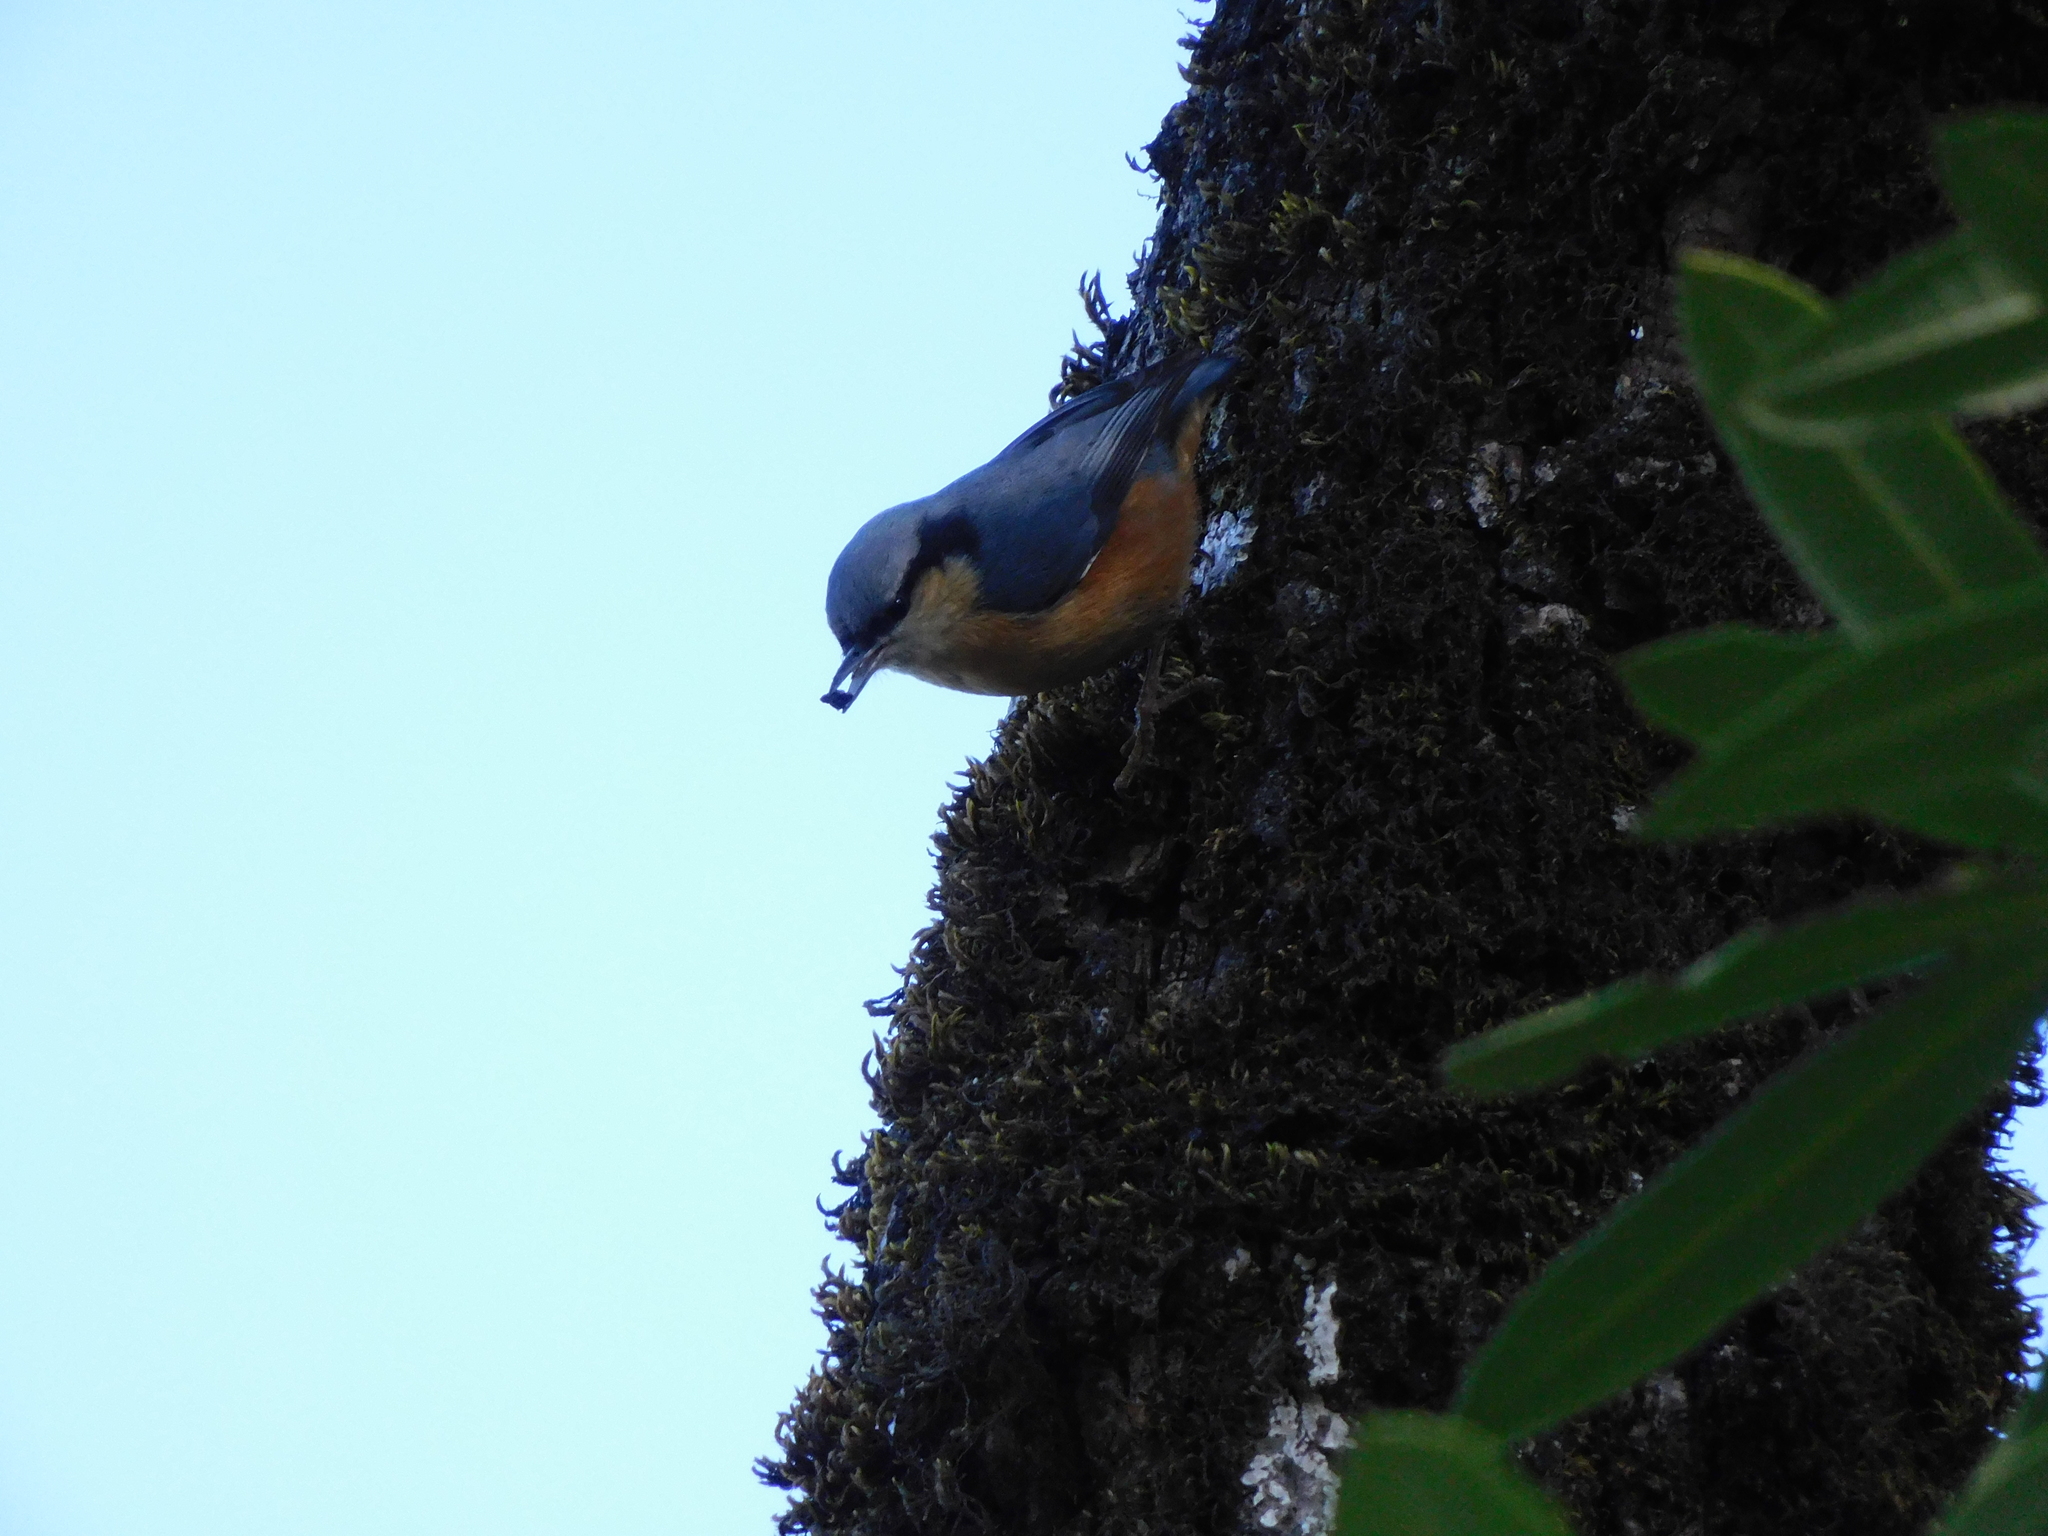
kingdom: Animalia
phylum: Chordata
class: Aves
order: Passeriformes
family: Sittidae
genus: Sitta
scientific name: Sitta himalayensis
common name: White-tailed nuthatch
